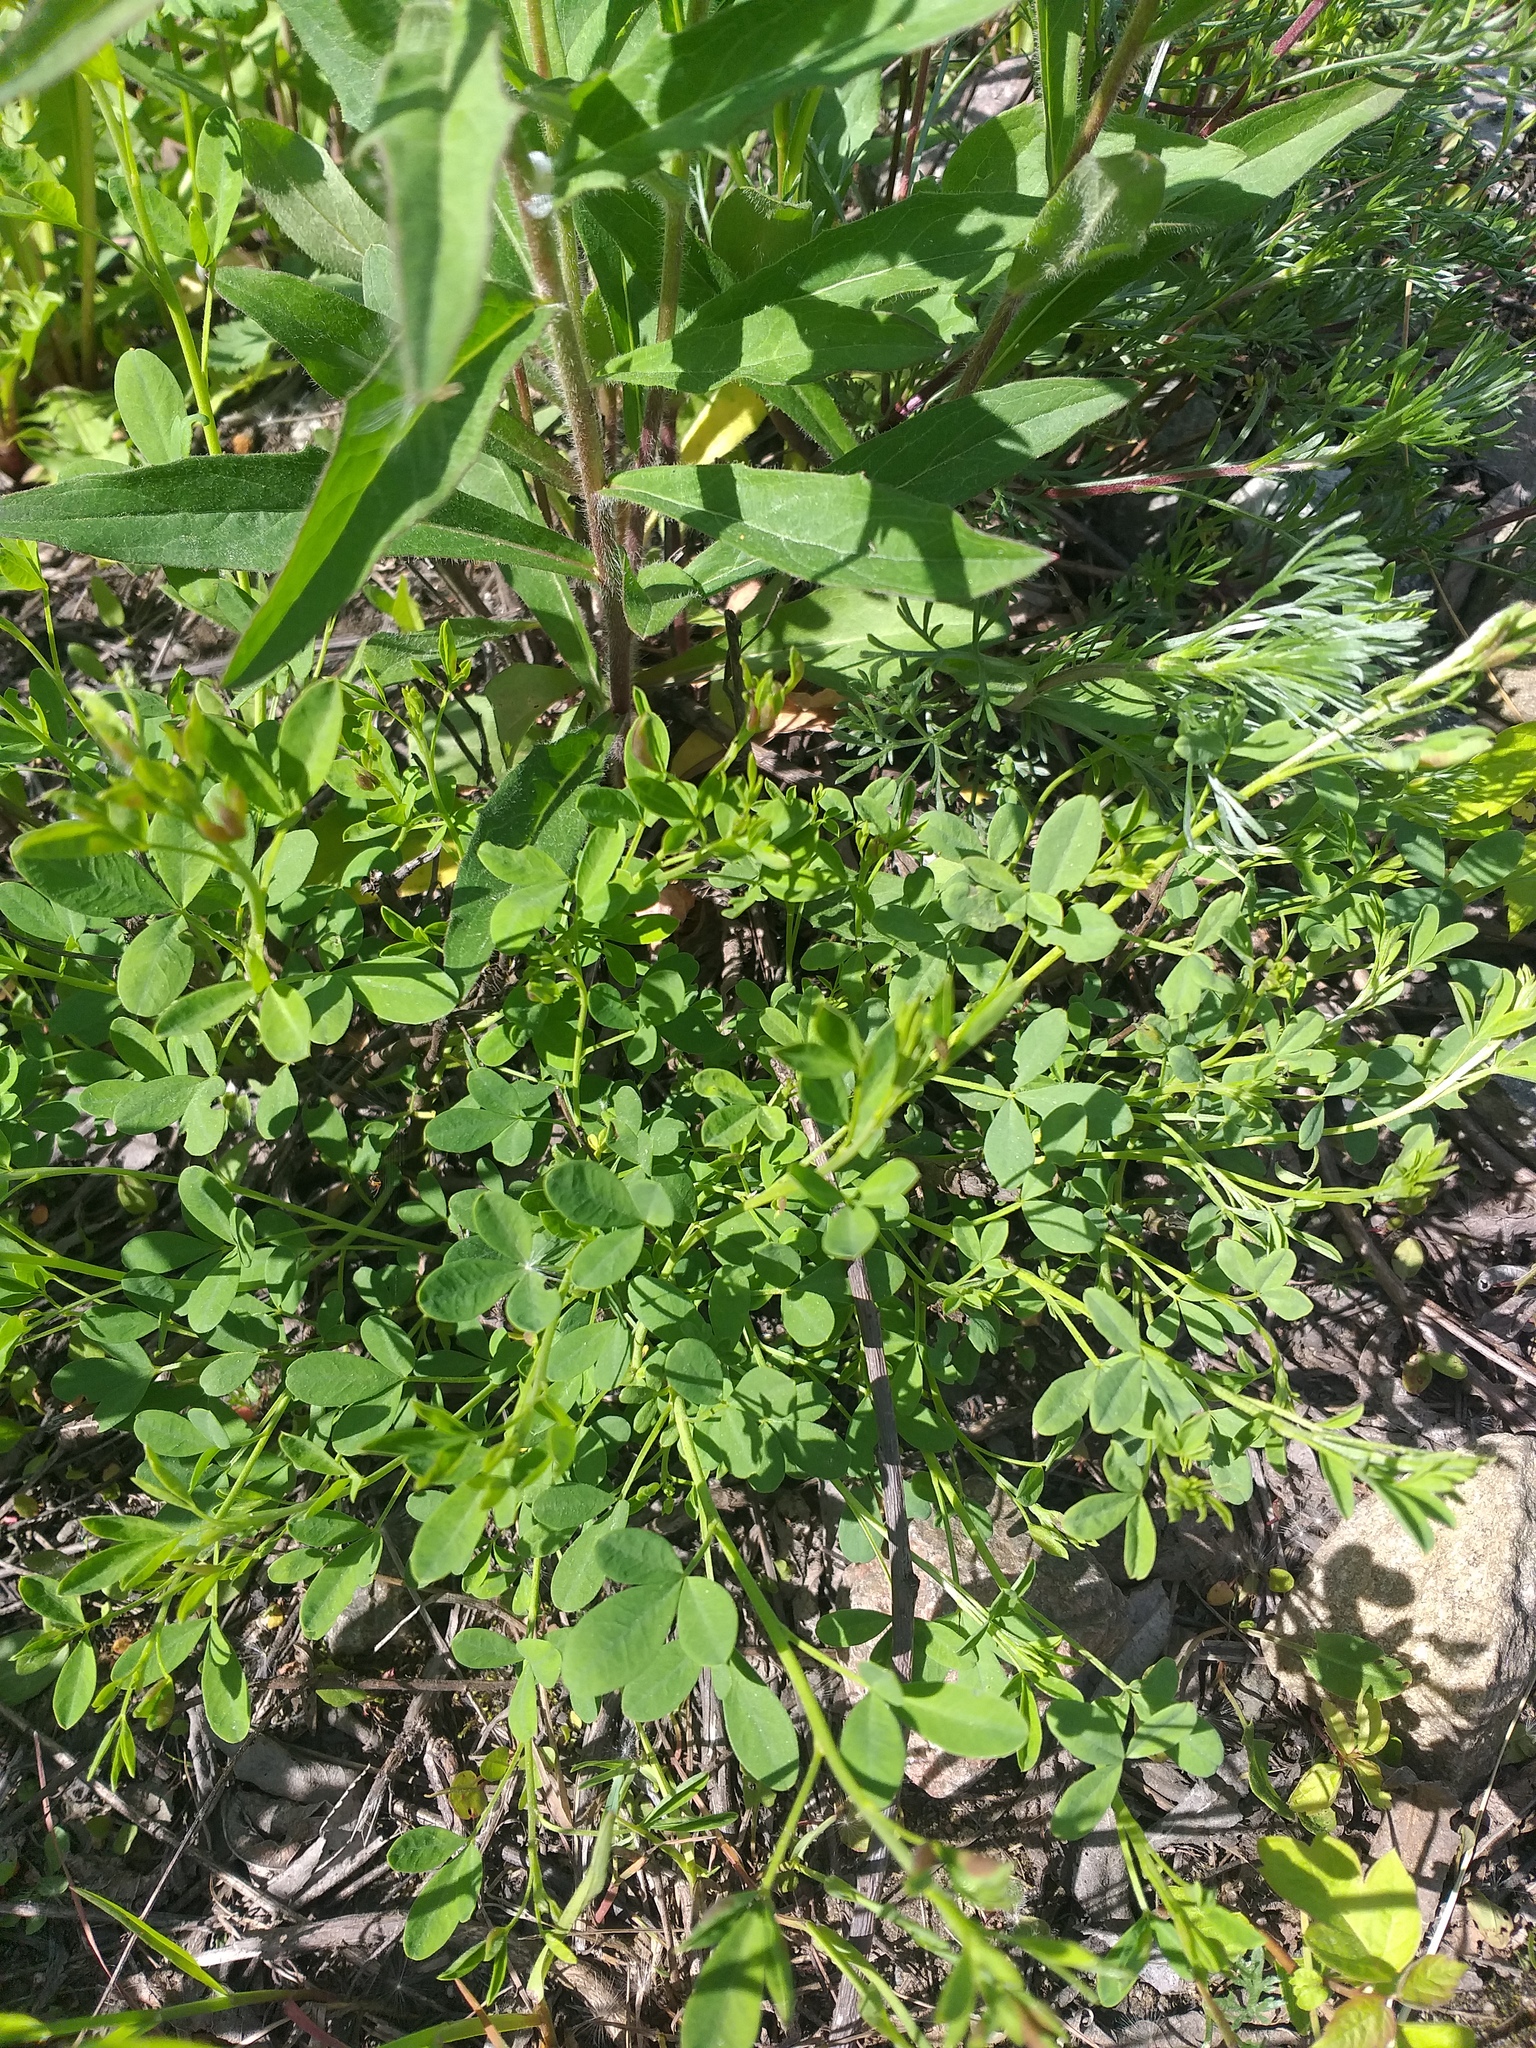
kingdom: Plantae
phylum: Tracheophyta
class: Magnoliopsida
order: Fabales
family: Fabaceae
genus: Chamaecytisus
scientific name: Chamaecytisus ruthenicus
